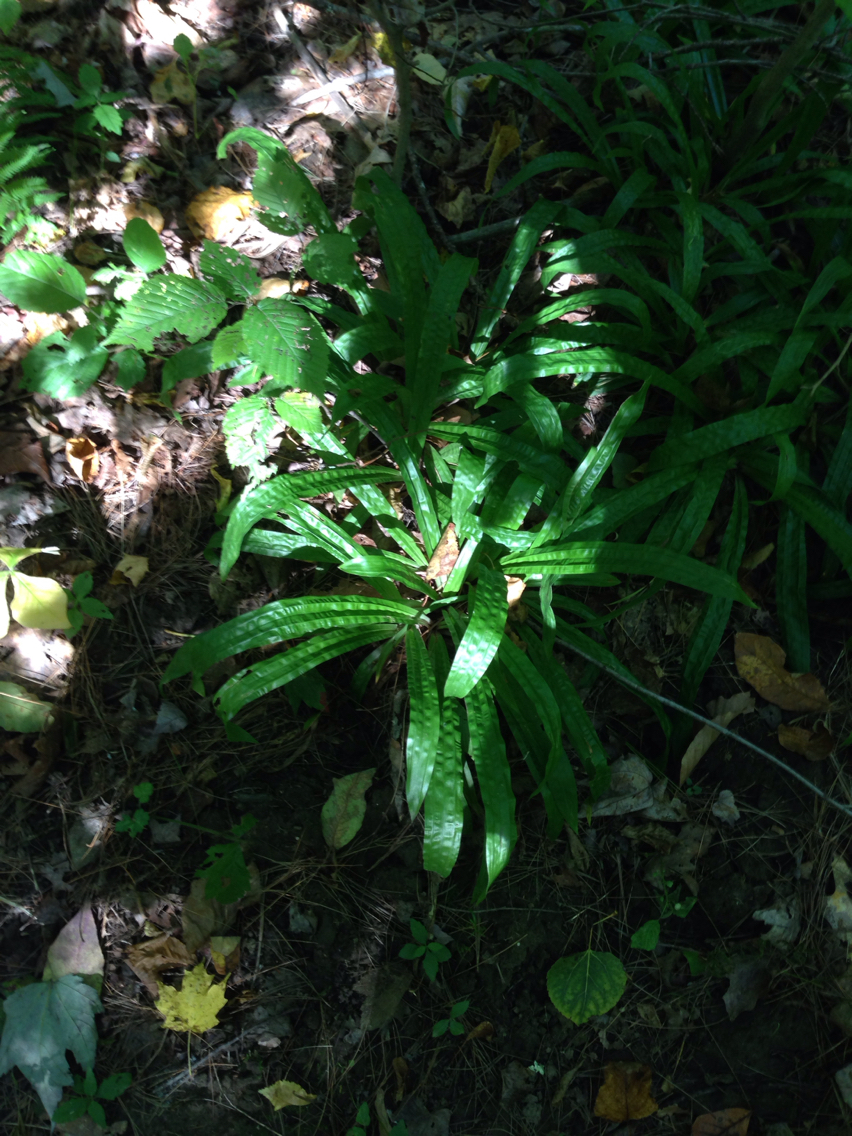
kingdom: Plantae
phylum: Tracheophyta
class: Liliopsida
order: Poales
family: Cyperaceae
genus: Carex
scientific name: Carex plantaginea
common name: Plantain-leaved sedge
